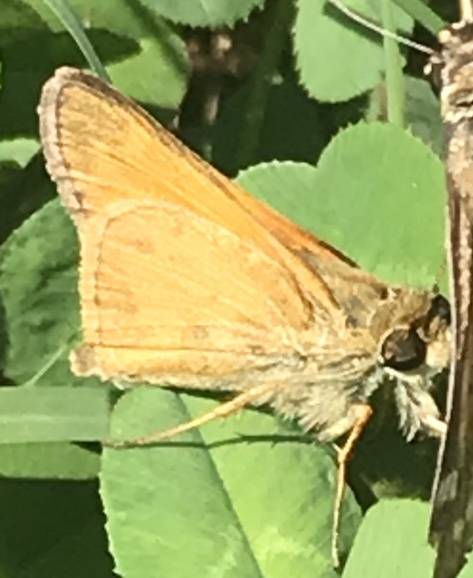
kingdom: Animalia
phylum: Arthropoda
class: Insecta
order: Lepidoptera
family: Hesperiidae
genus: Atalopedes
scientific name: Atalopedes
